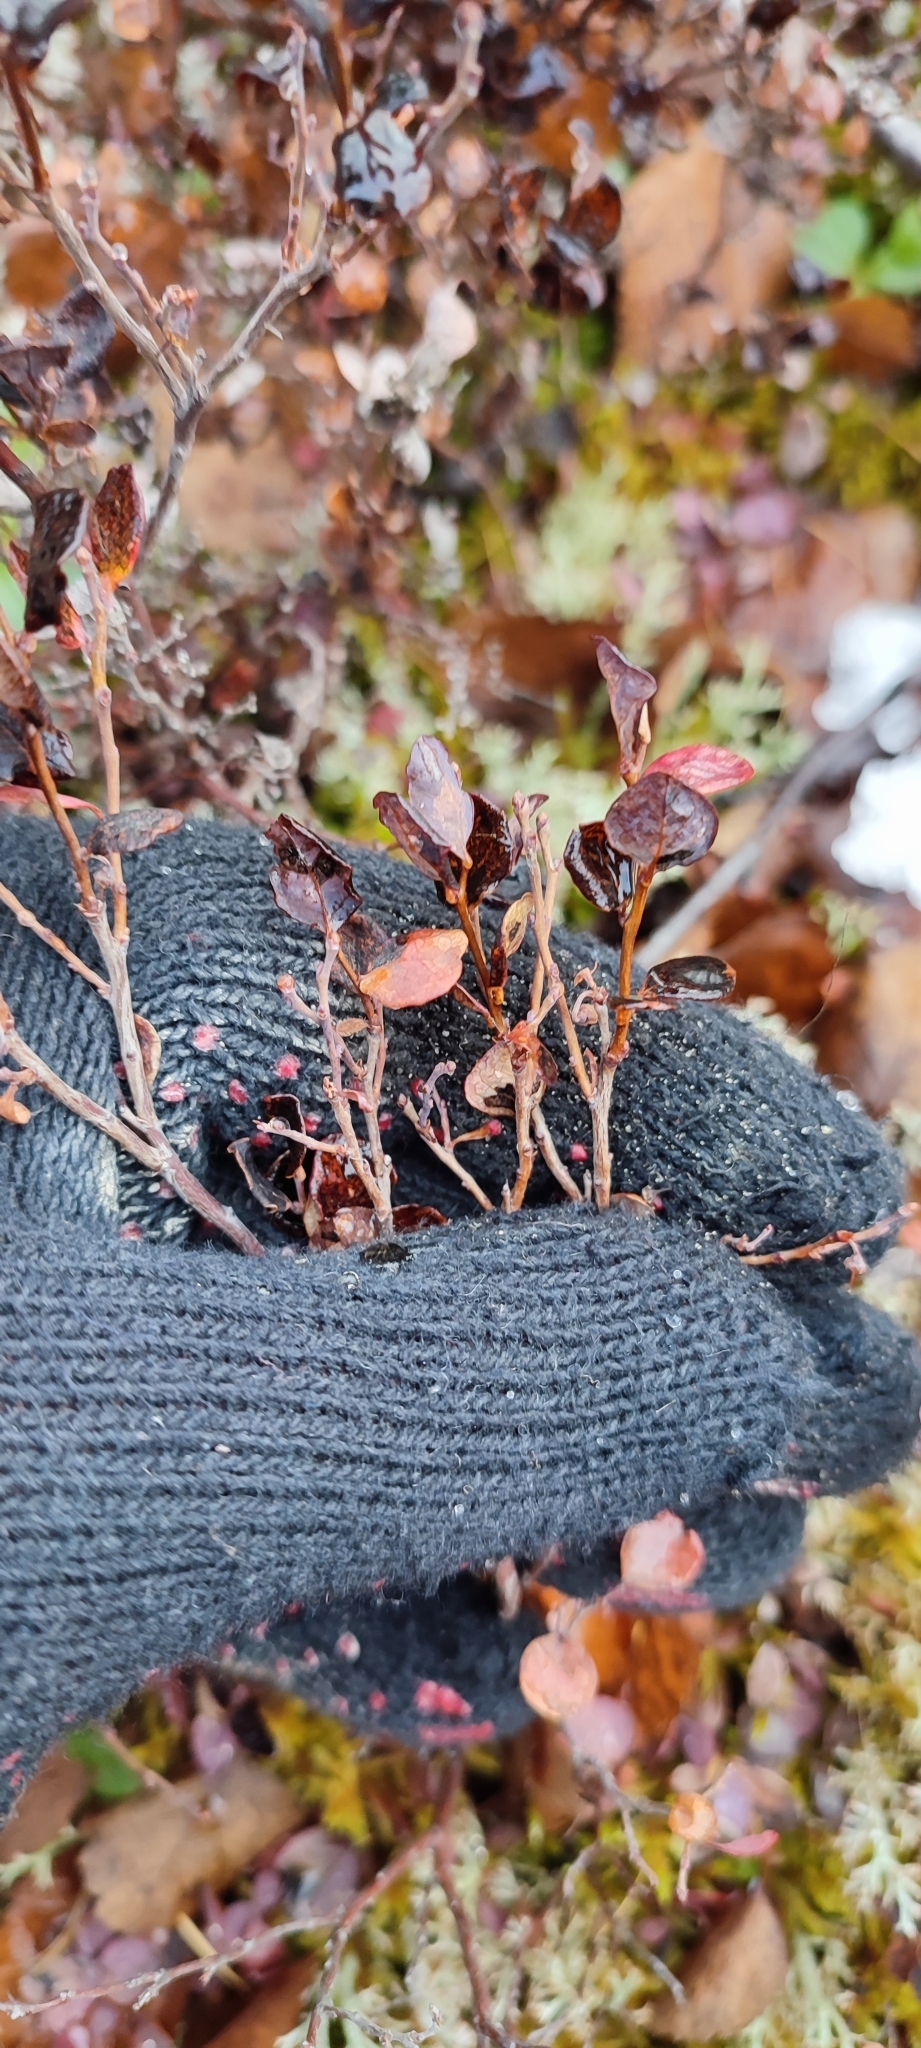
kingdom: Plantae
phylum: Tracheophyta
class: Magnoliopsida
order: Ericales
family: Ericaceae
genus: Vaccinium
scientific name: Vaccinium uliginosum
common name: Bog bilberry
